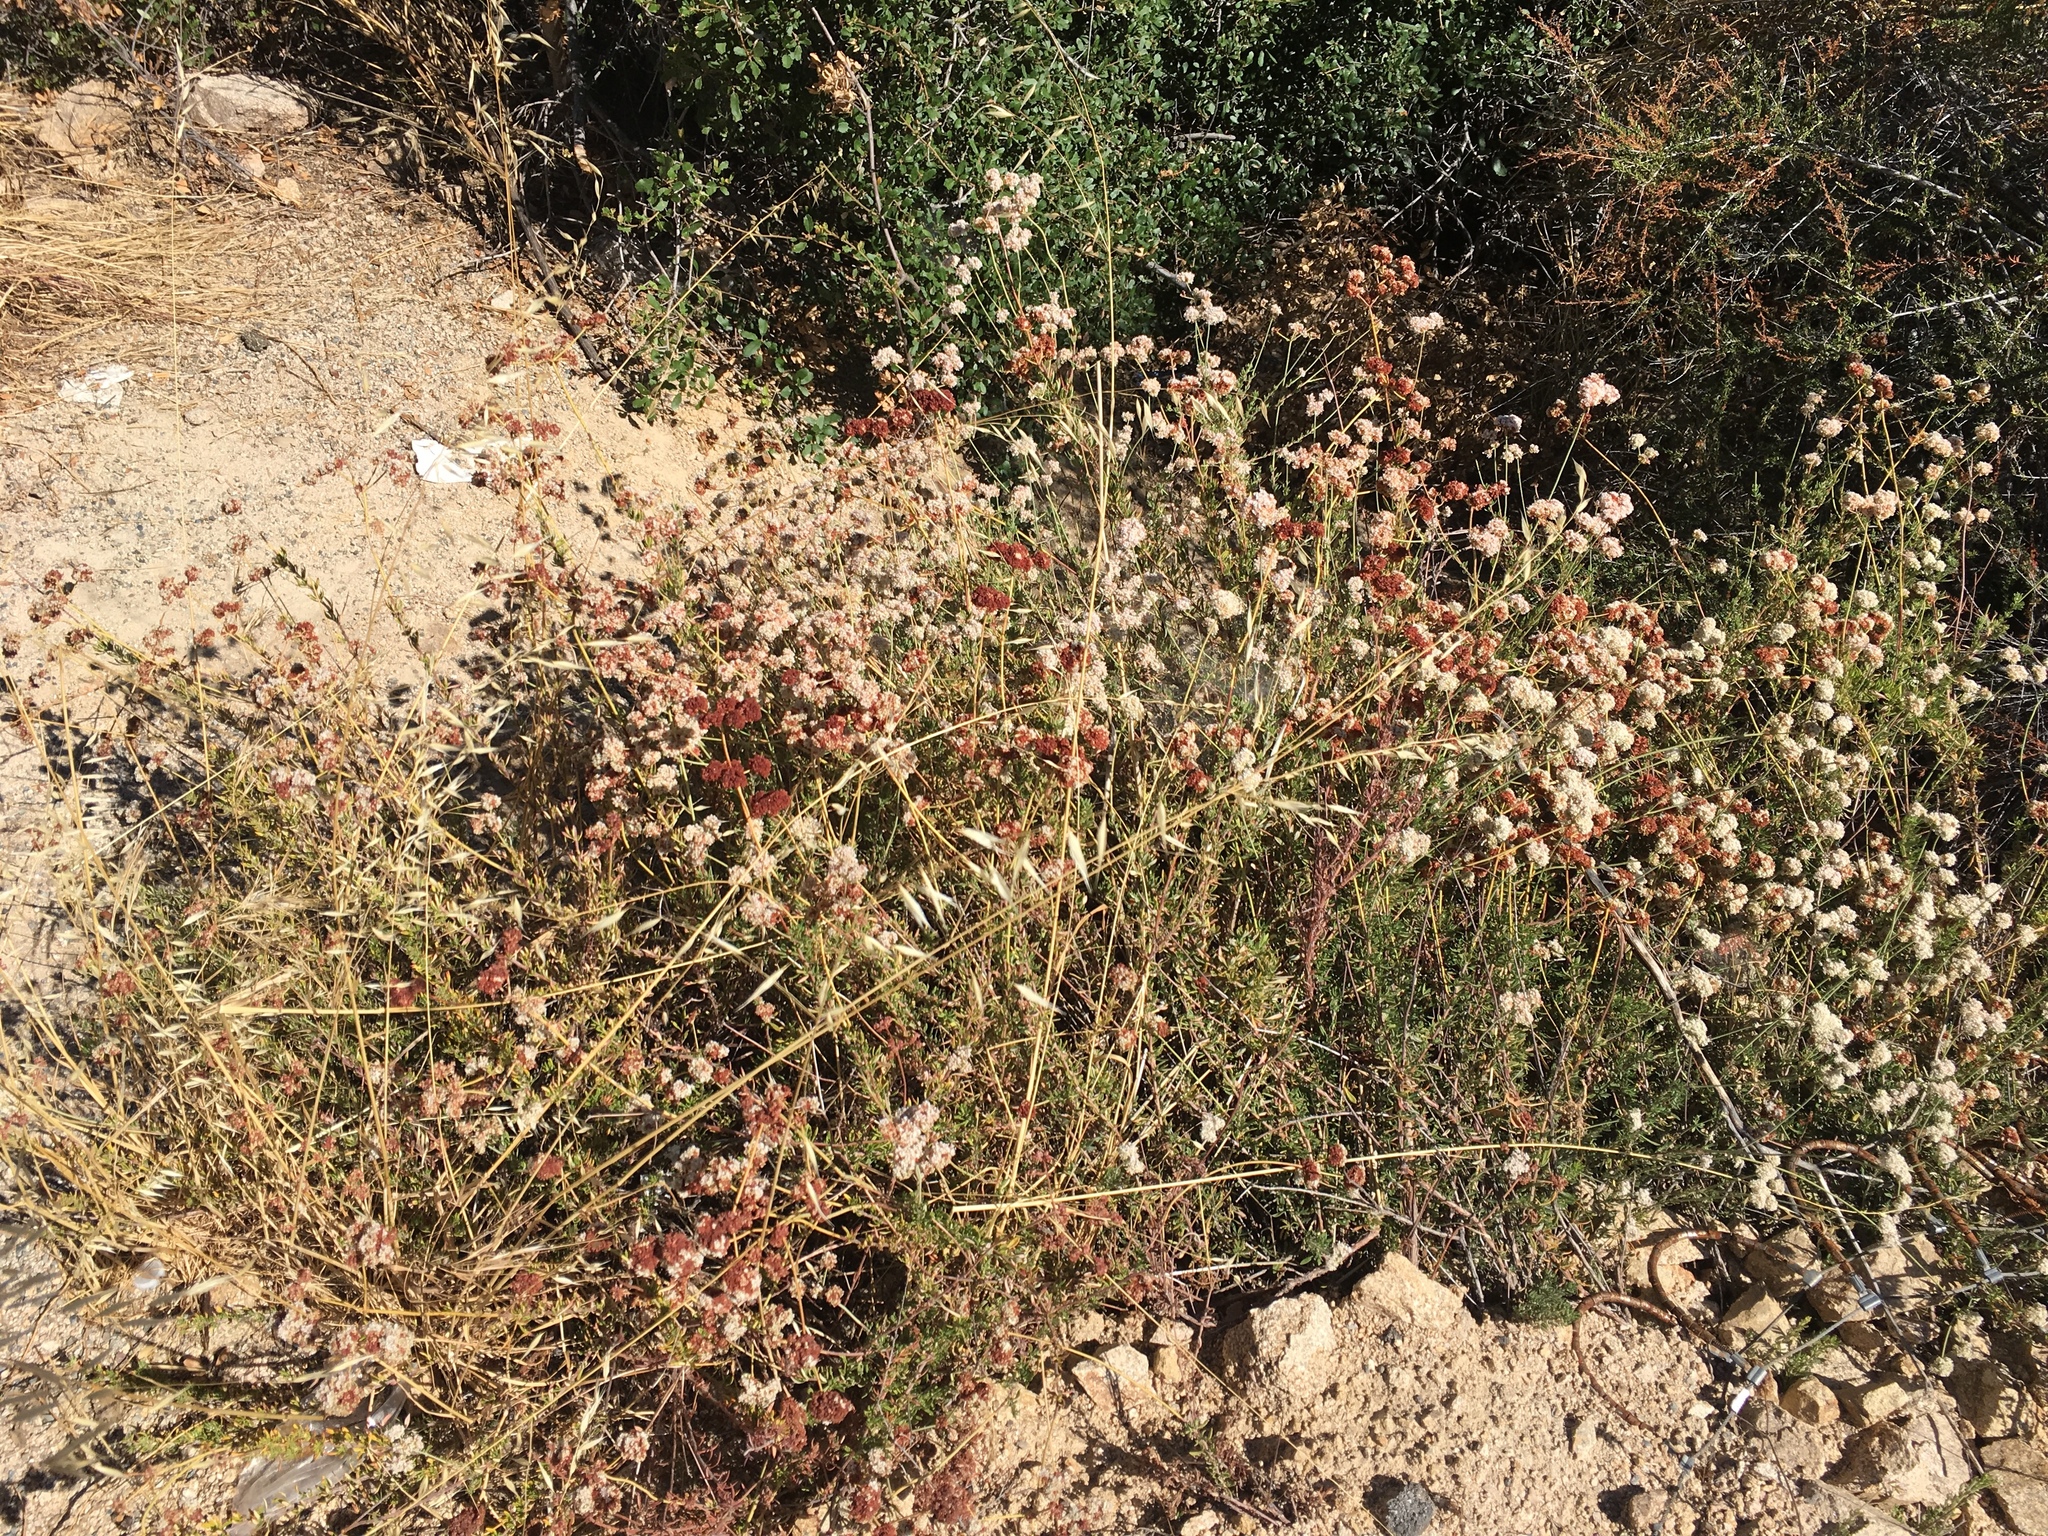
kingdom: Plantae
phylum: Tracheophyta
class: Magnoliopsida
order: Caryophyllales
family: Polygonaceae
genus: Eriogonum
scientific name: Eriogonum fasciculatum
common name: California wild buckwheat
